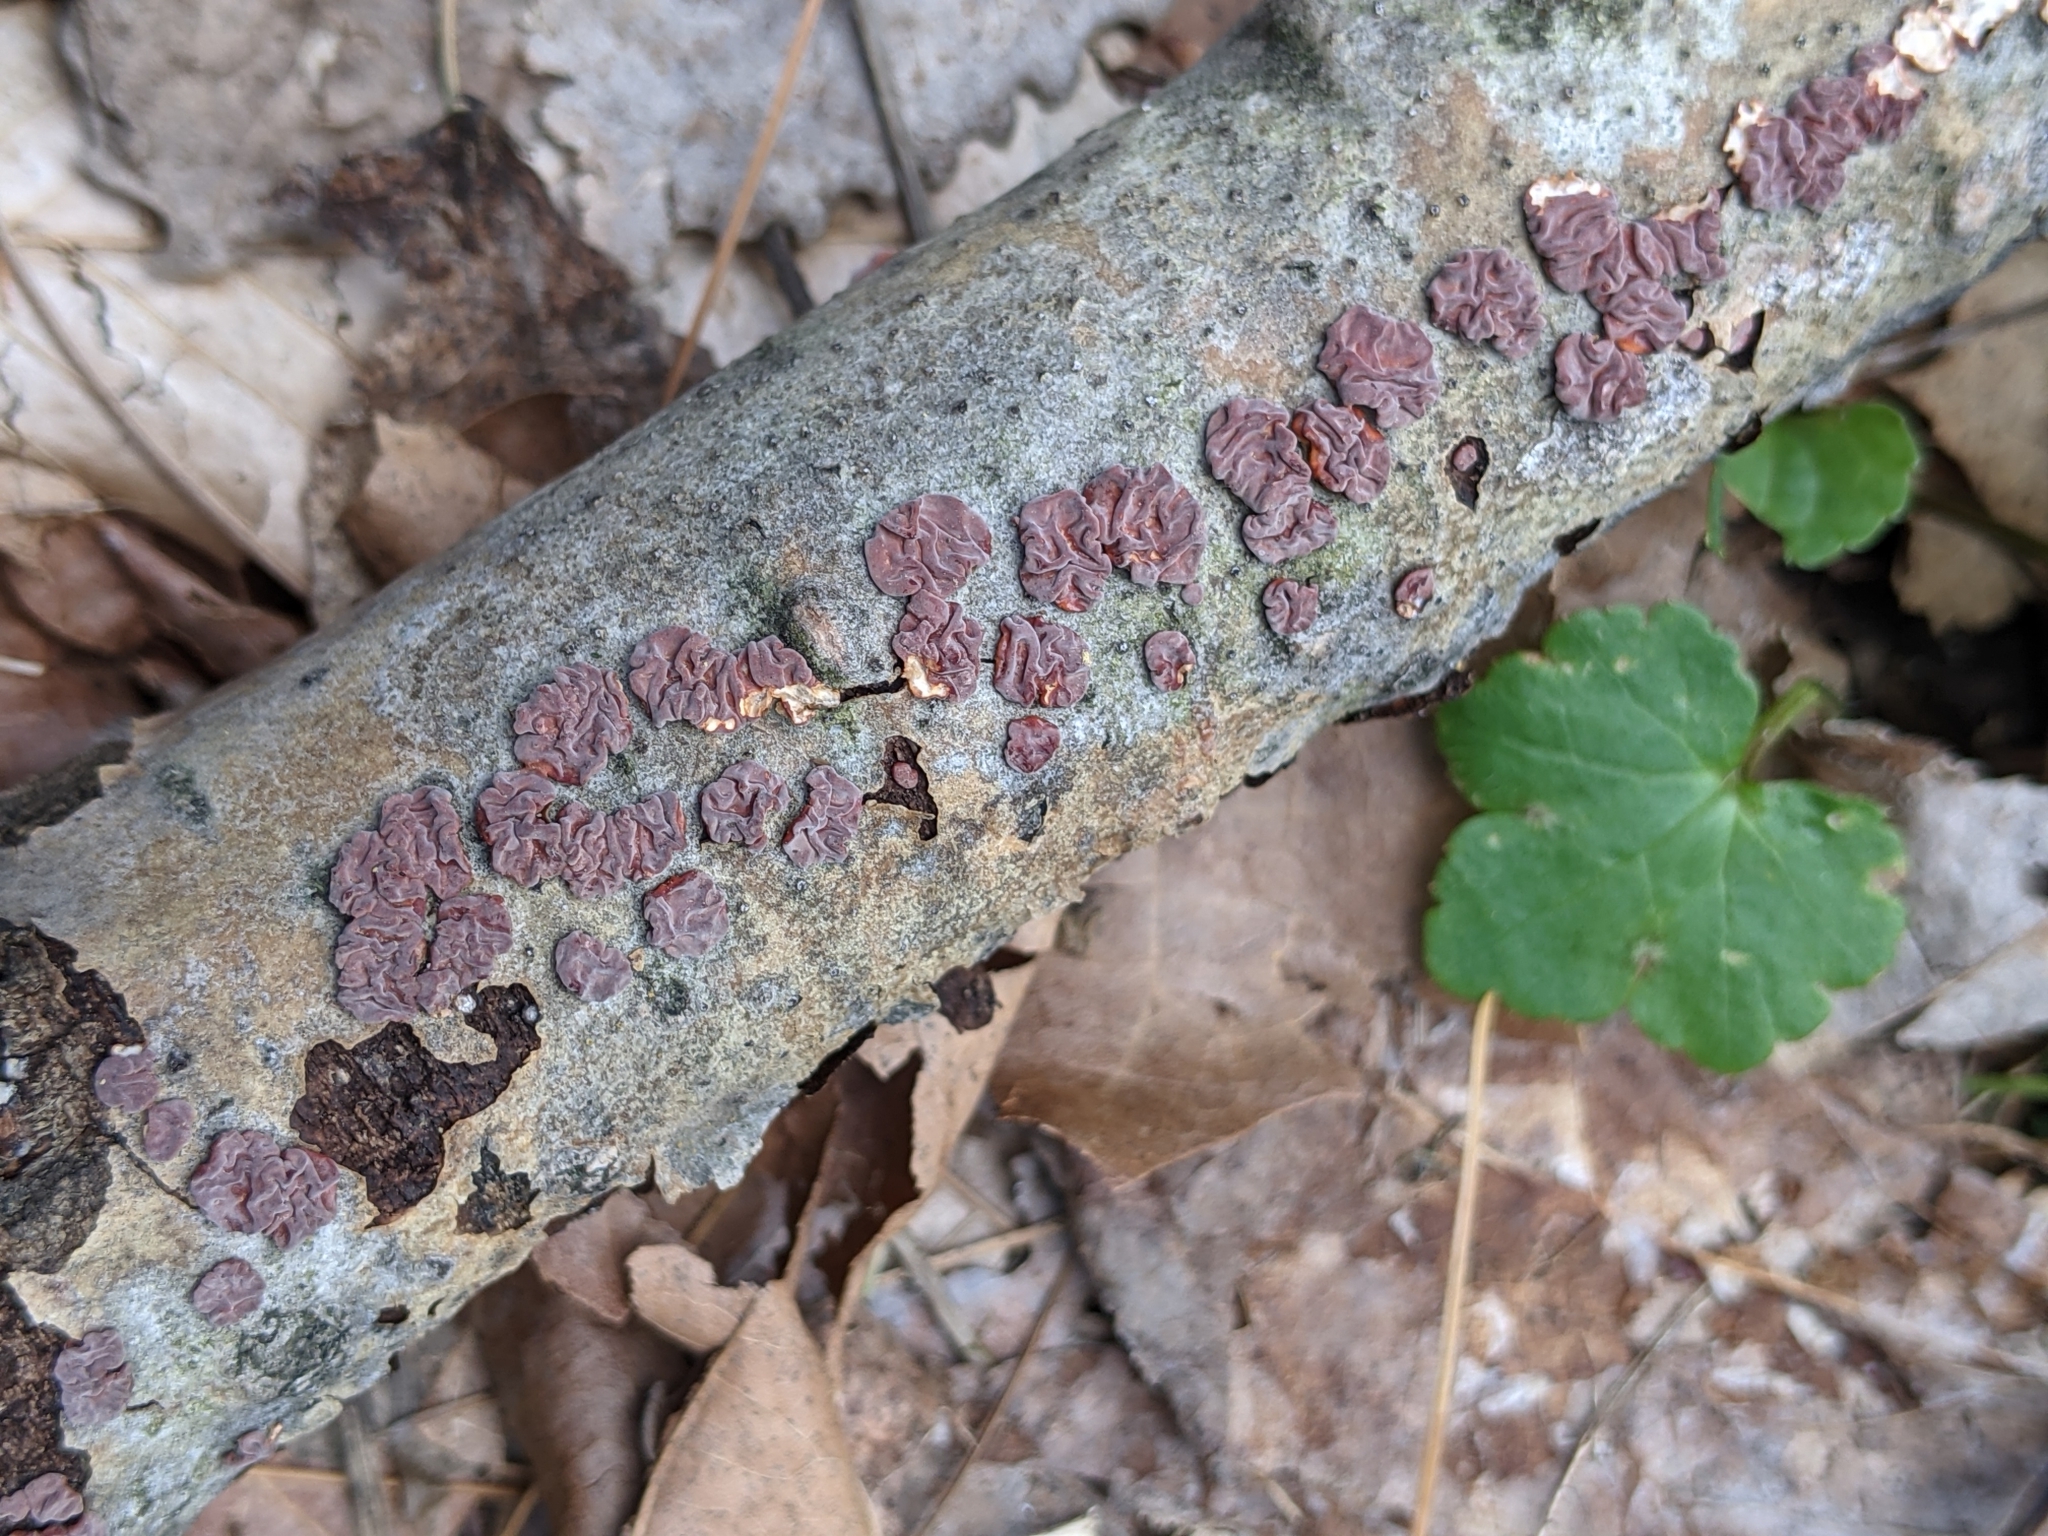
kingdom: Fungi
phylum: Basidiomycota
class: Agaricomycetes
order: Russulales
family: Peniophoraceae
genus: Peniophora
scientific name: Peniophora rufa
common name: Red tree brain fungus
